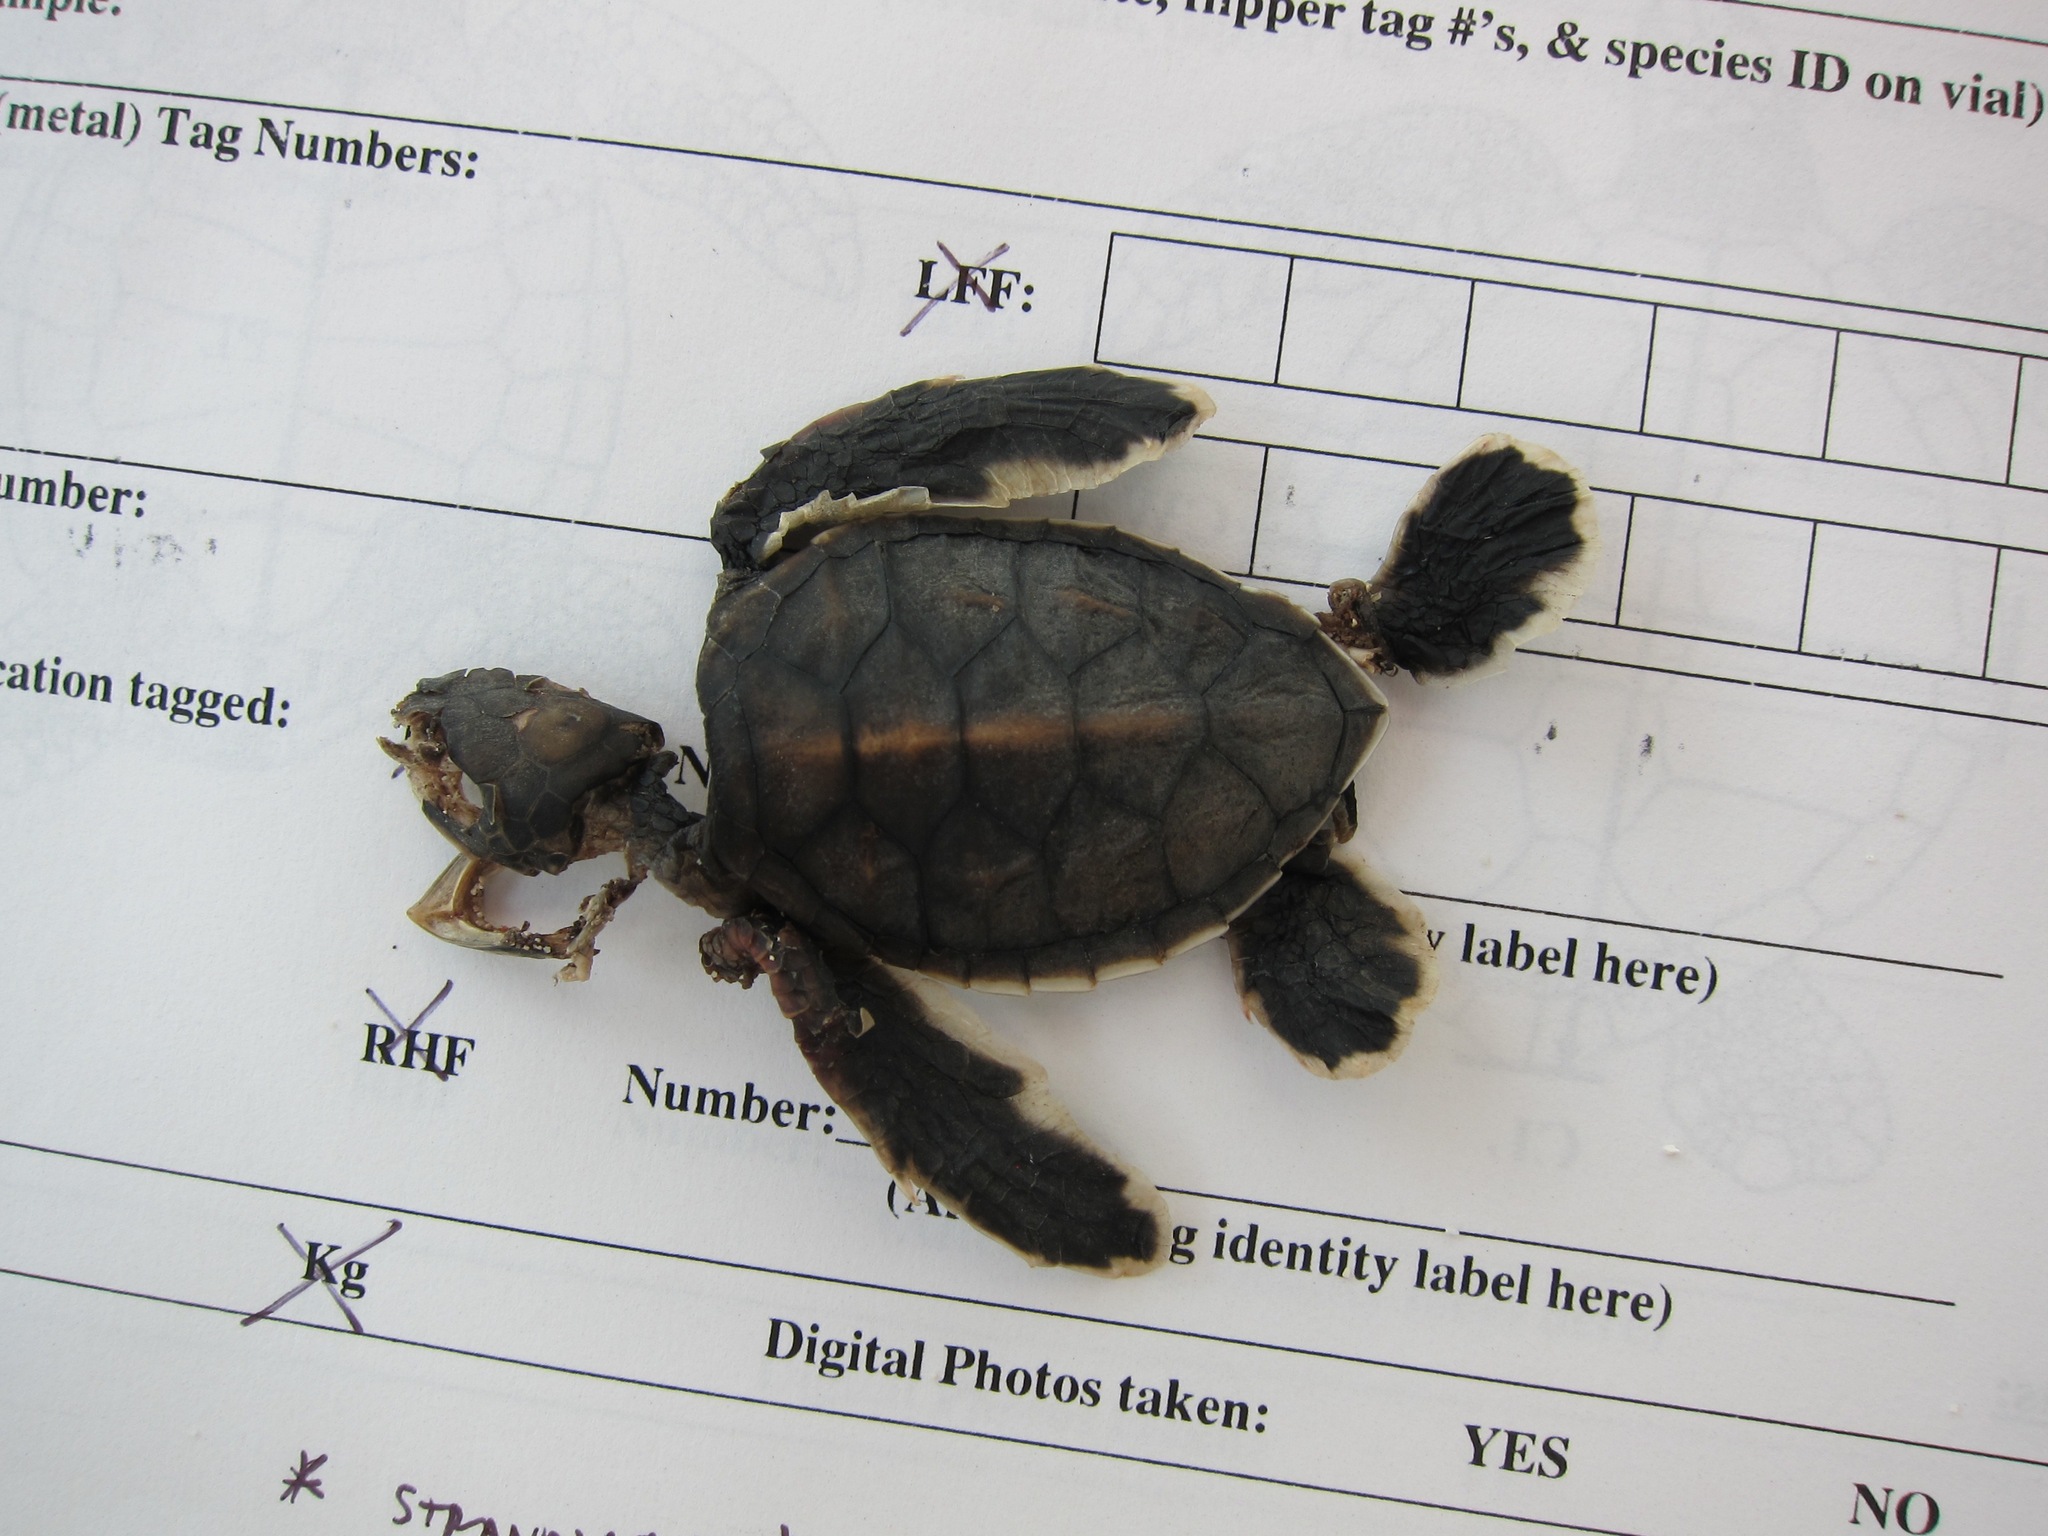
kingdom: Animalia
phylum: Chordata
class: Testudines
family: Cheloniidae
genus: Chelonia
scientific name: Chelonia mydas
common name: Green turtle
